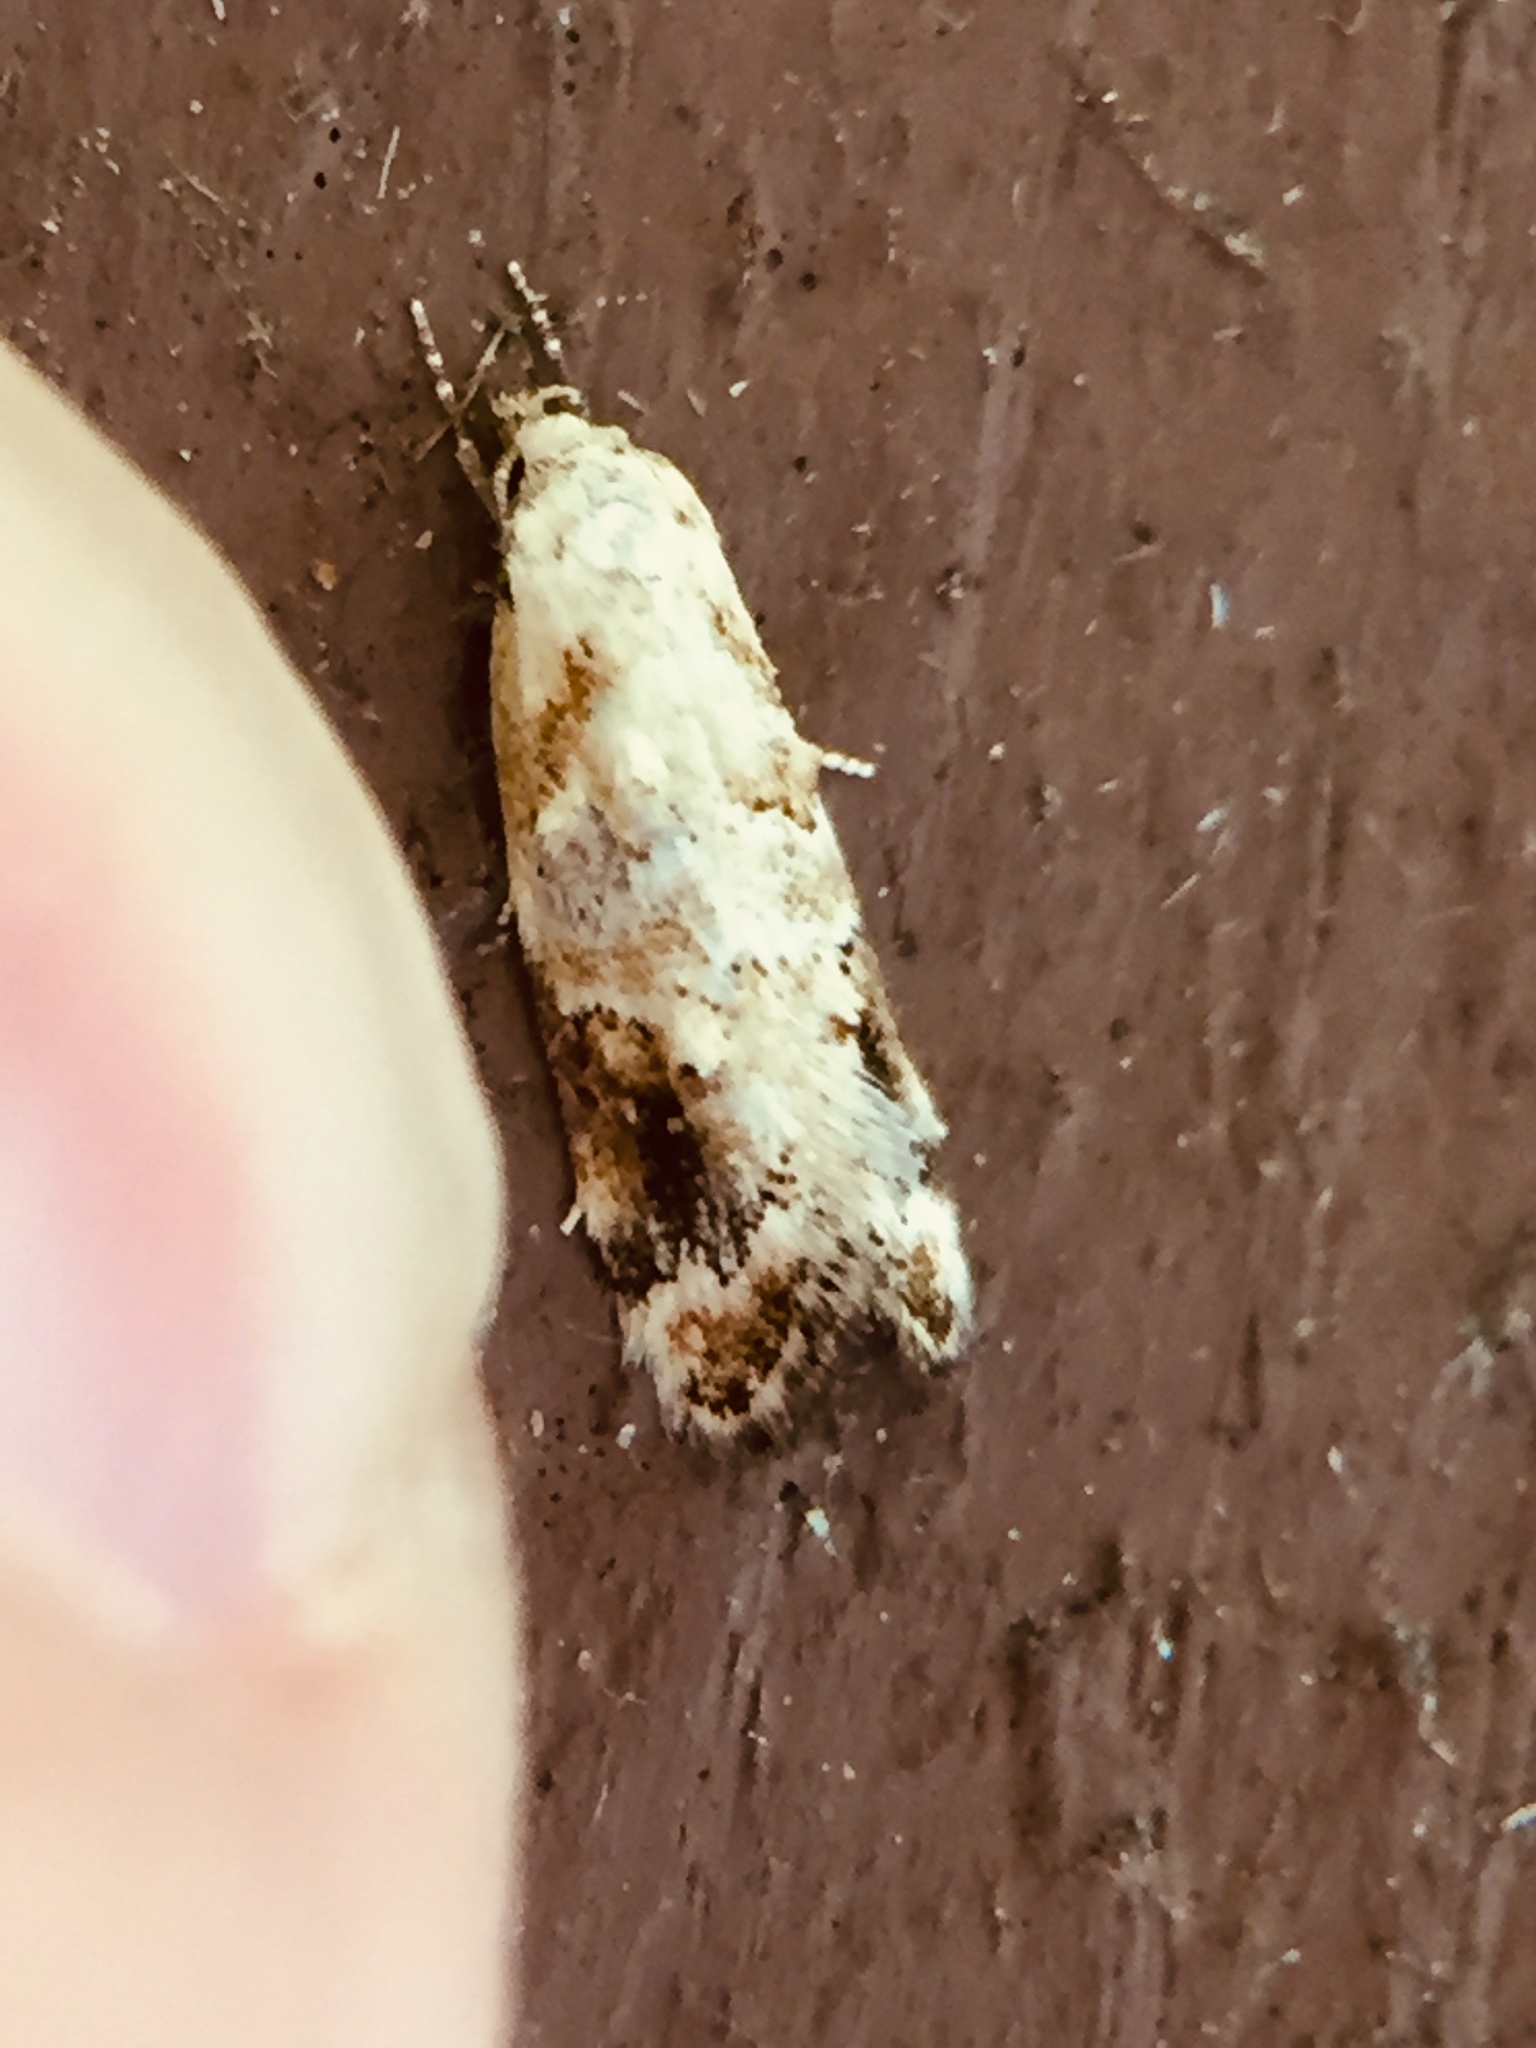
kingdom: Animalia
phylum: Arthropoda
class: Insecta
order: Lepidoptera
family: Oecophoridae
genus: Trachypepla
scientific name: Trachypepla aspidephora
